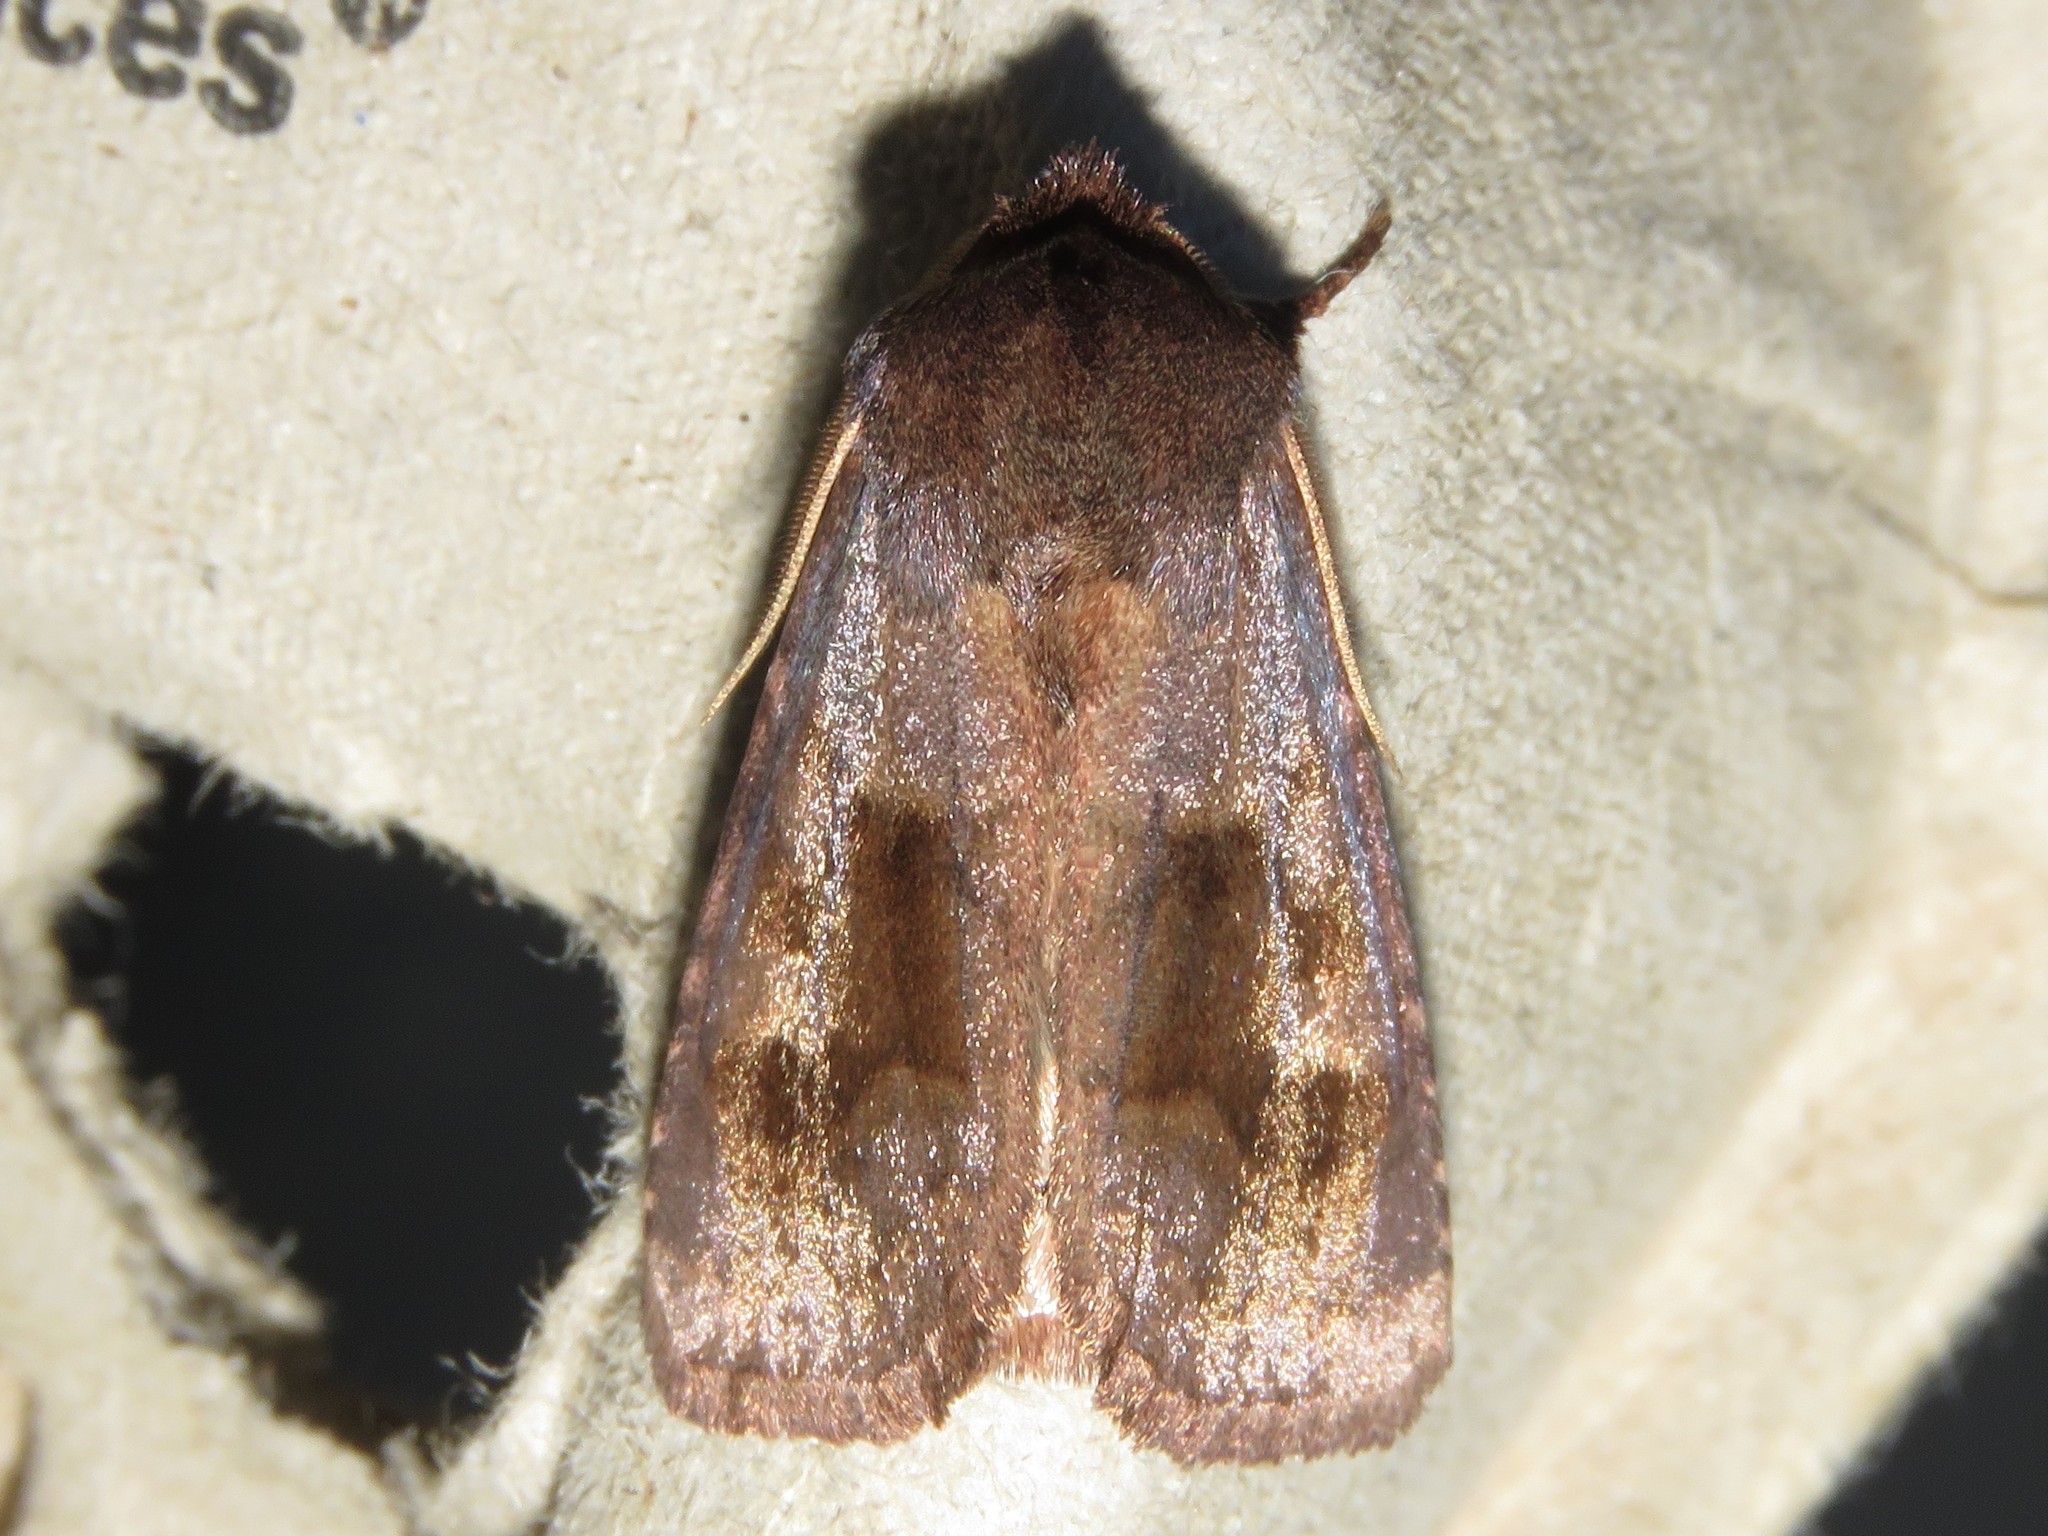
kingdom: Animalia
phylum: Arthropoda
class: Insecta
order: Lepidoptera
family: Noctuidae
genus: Nephelodes
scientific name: Nephelodes minians
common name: Bronzed cutworm
